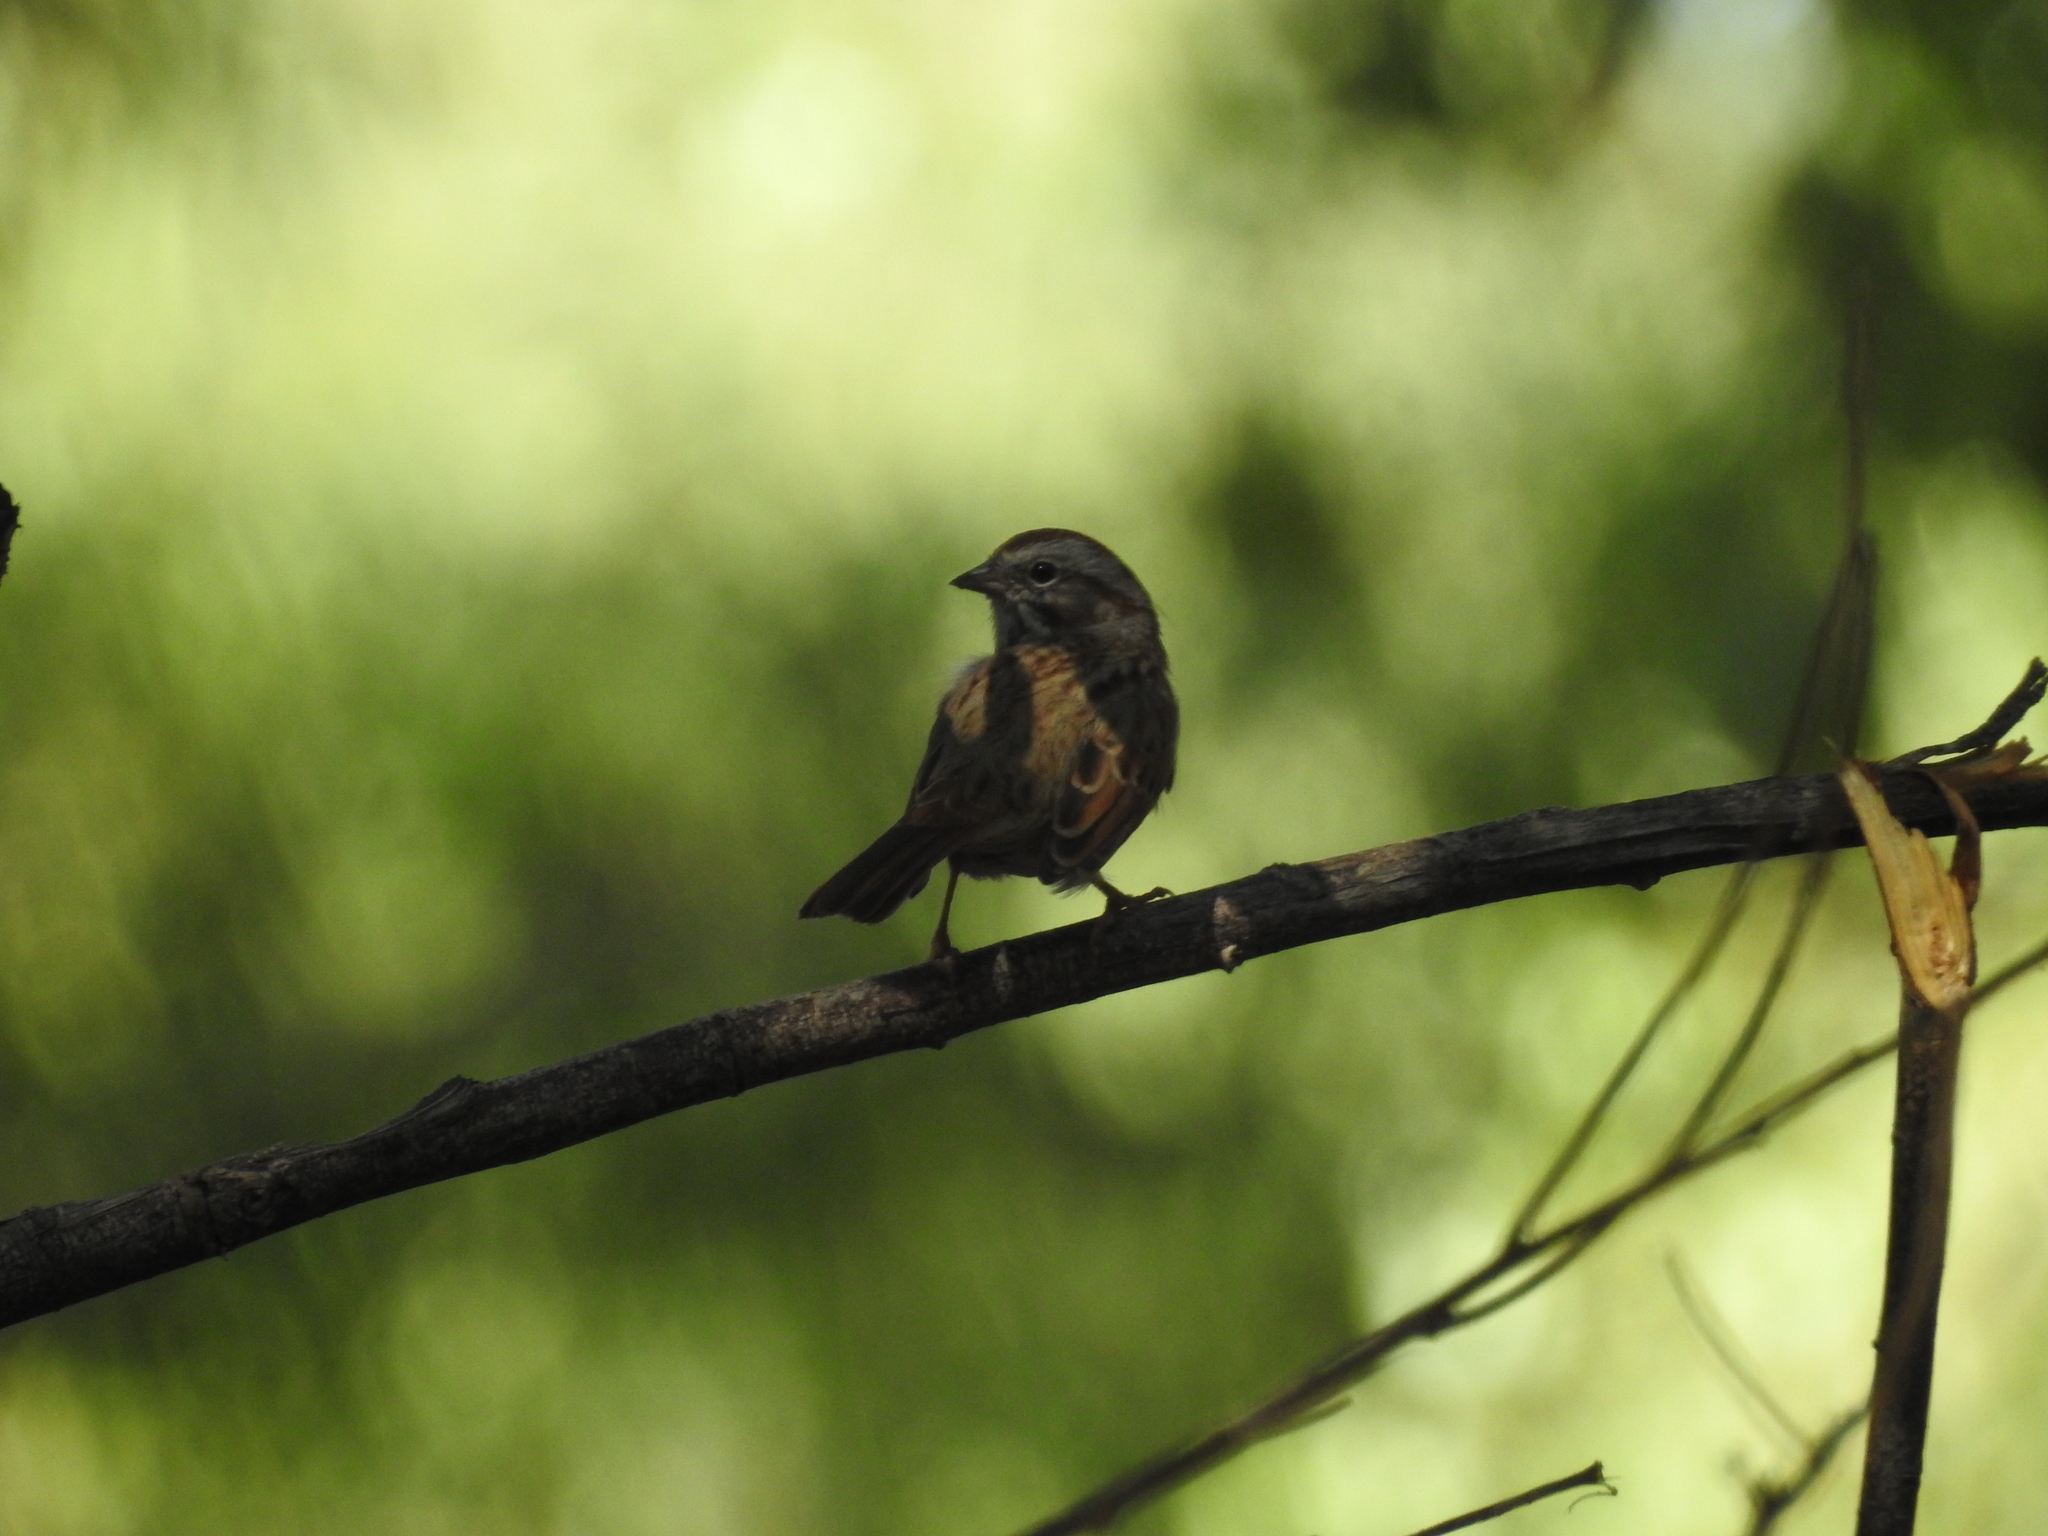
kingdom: Animalia
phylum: Chordata
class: Aves
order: Passeriformes
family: Passerellidae
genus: Melospiza
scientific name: Melospiza melodia
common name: Song sparrow
